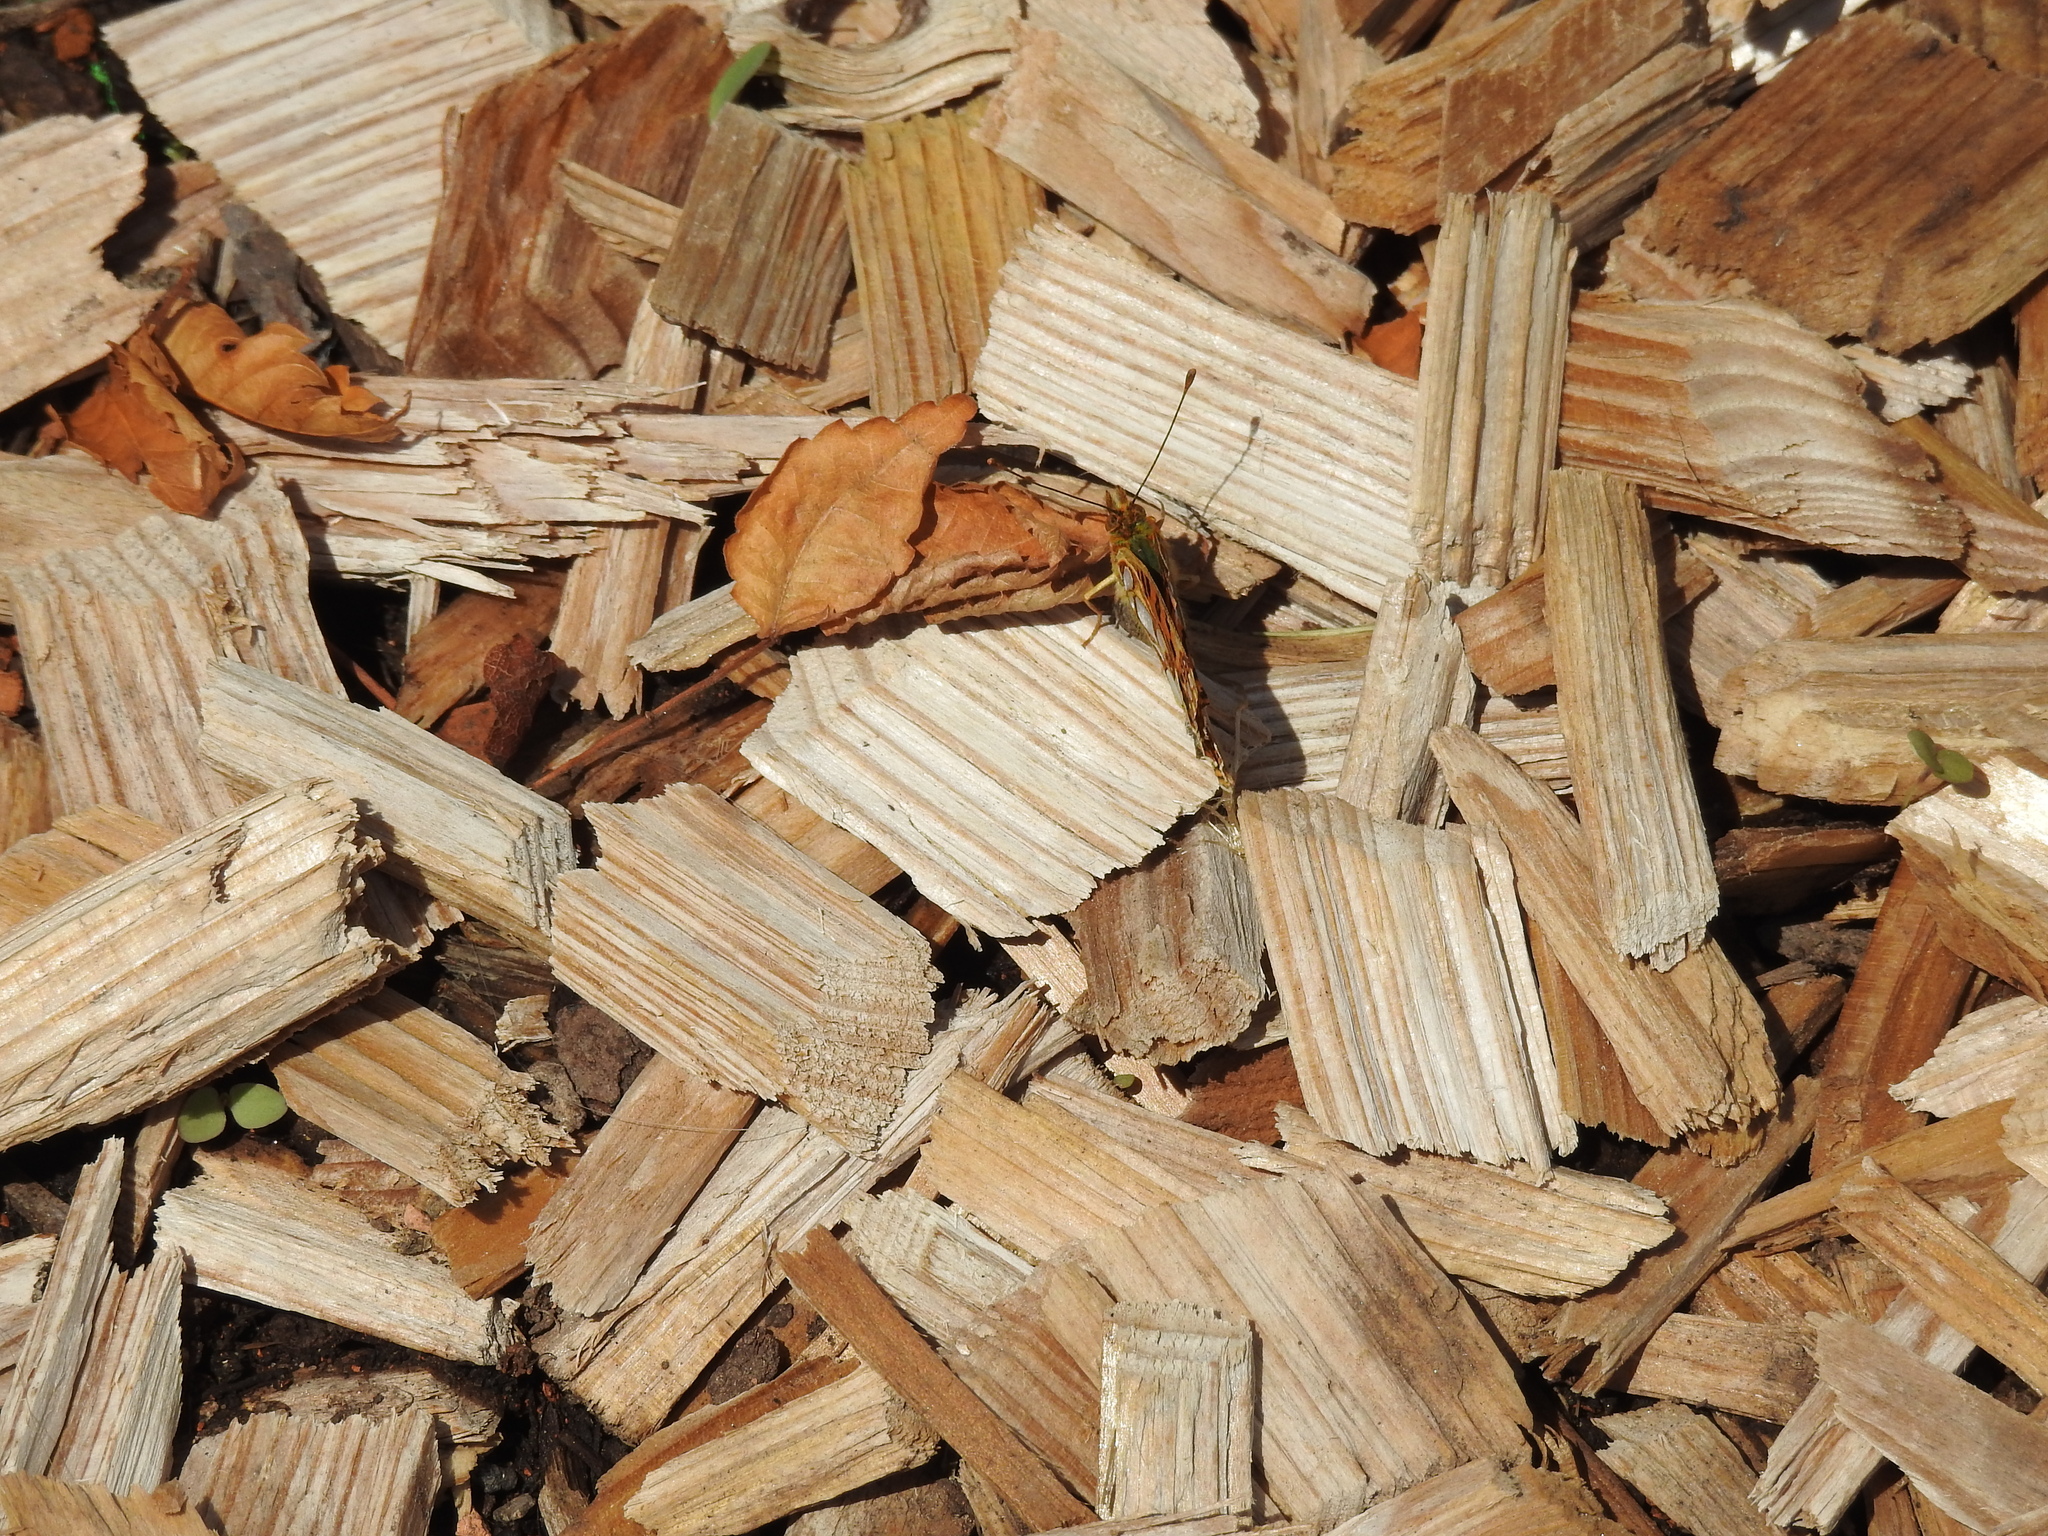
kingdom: Animalia
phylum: Arthropoda
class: Insecta
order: Lepidoptera
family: Nymphalidae
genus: Issoria
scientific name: Issoria lathonia
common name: Queen of spain fritillary
